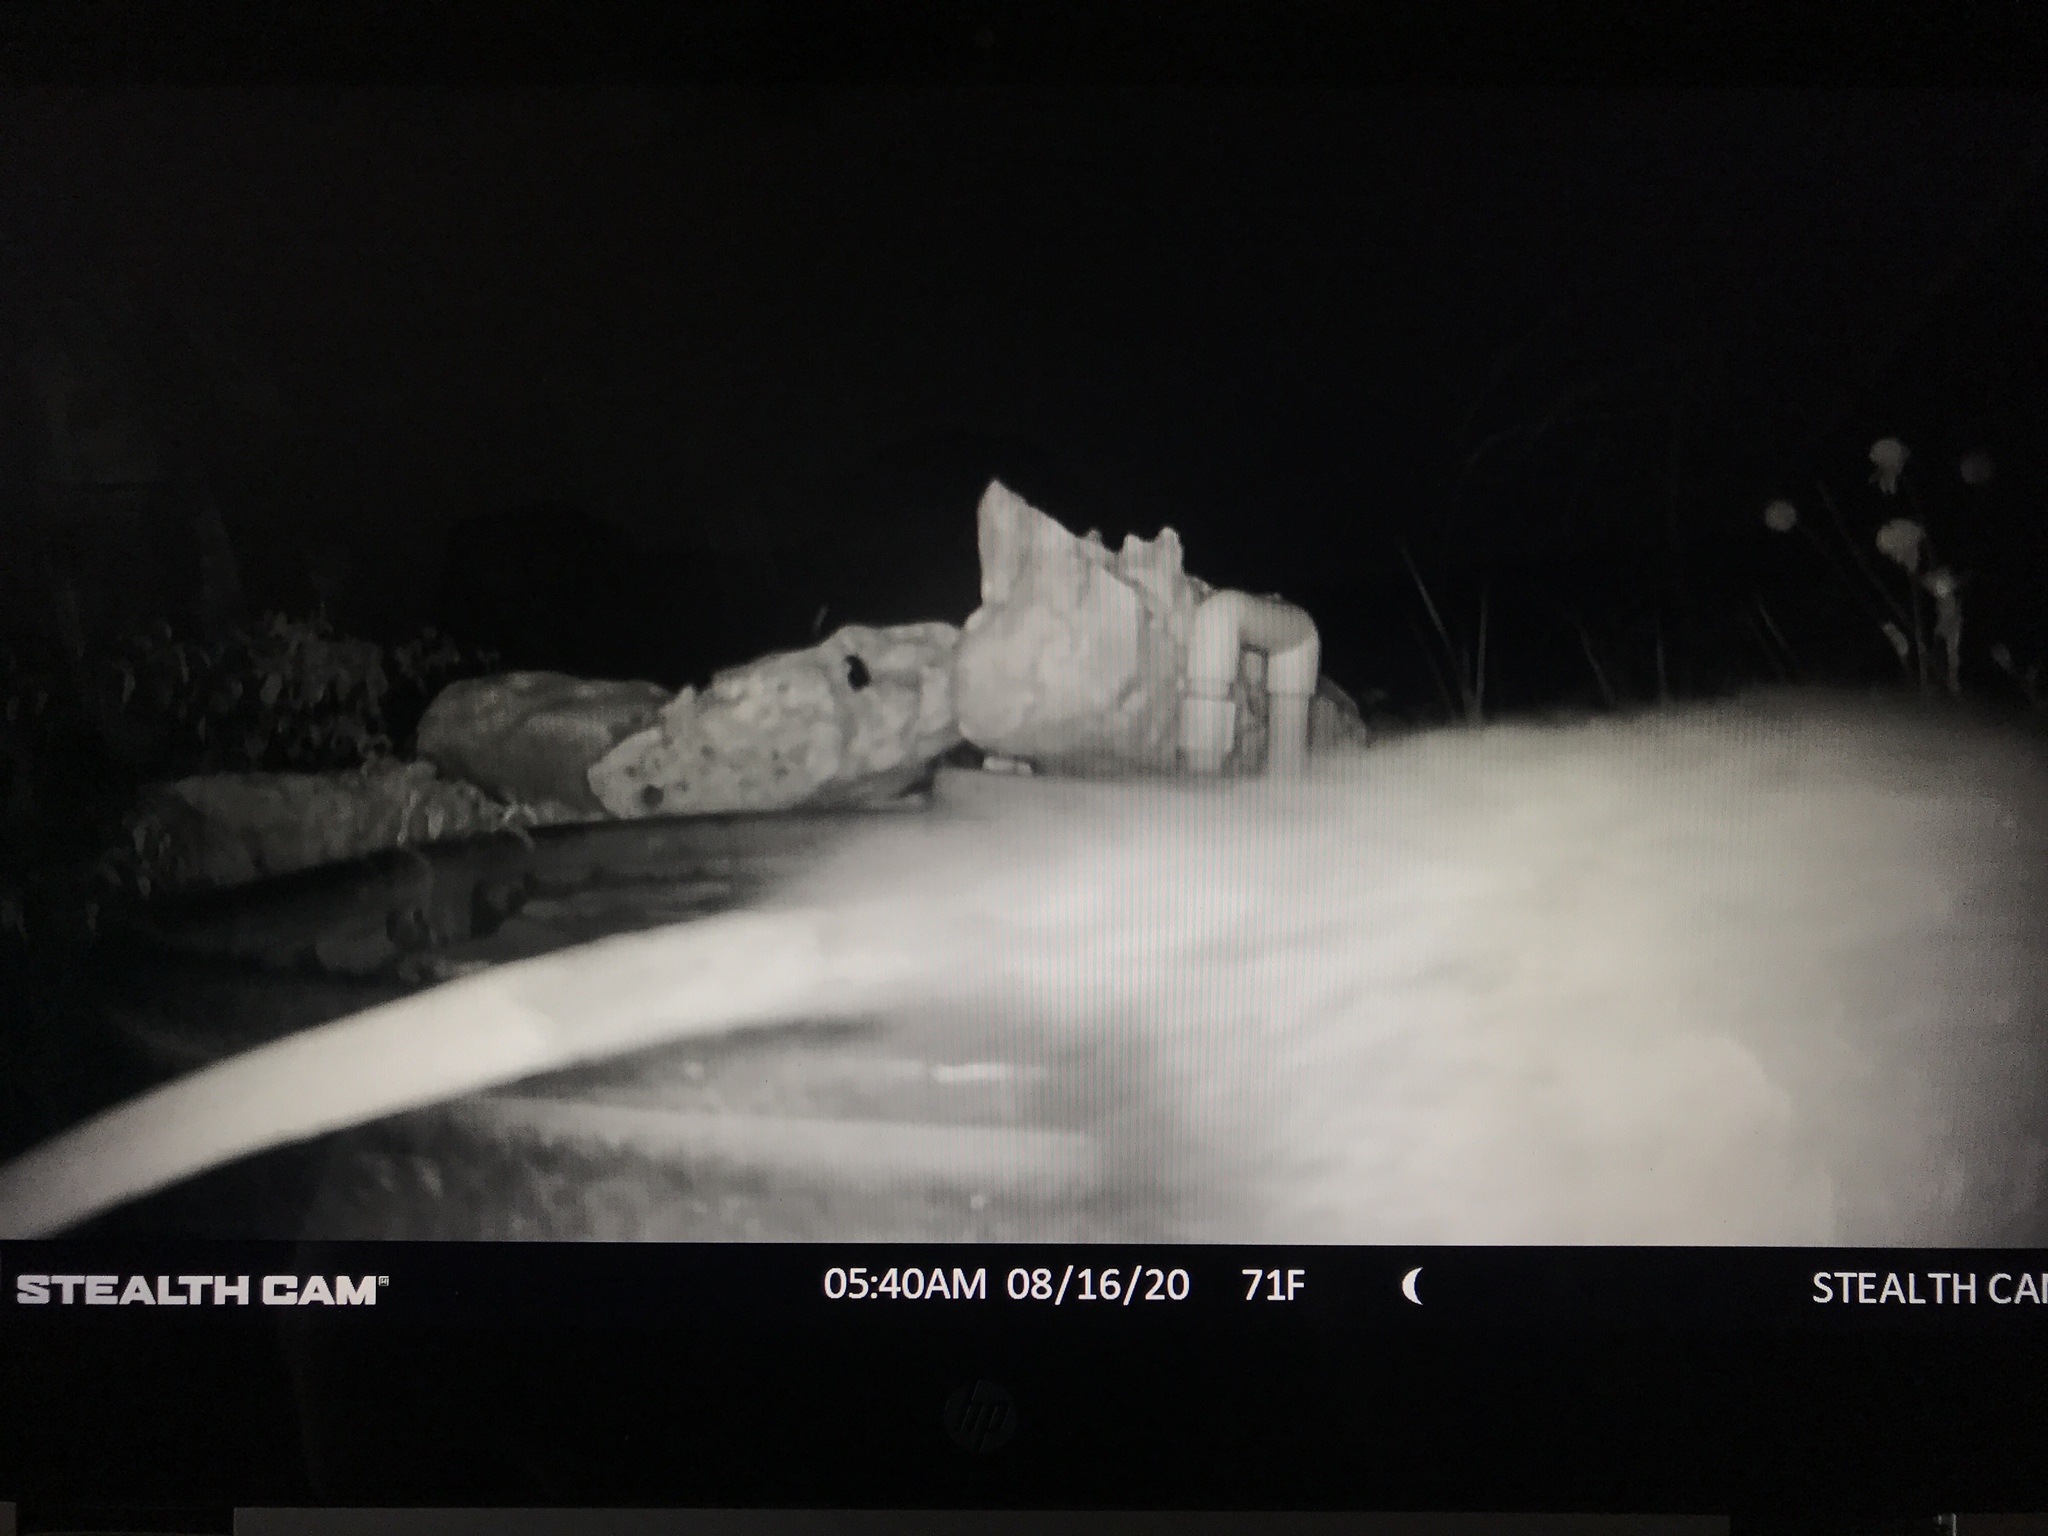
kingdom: Animalia
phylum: Chordata
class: Mammalia
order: Didelphimorphia
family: Didelphidae
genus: Didelphis
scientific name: Didelphis virginiana
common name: Virginia opossum
